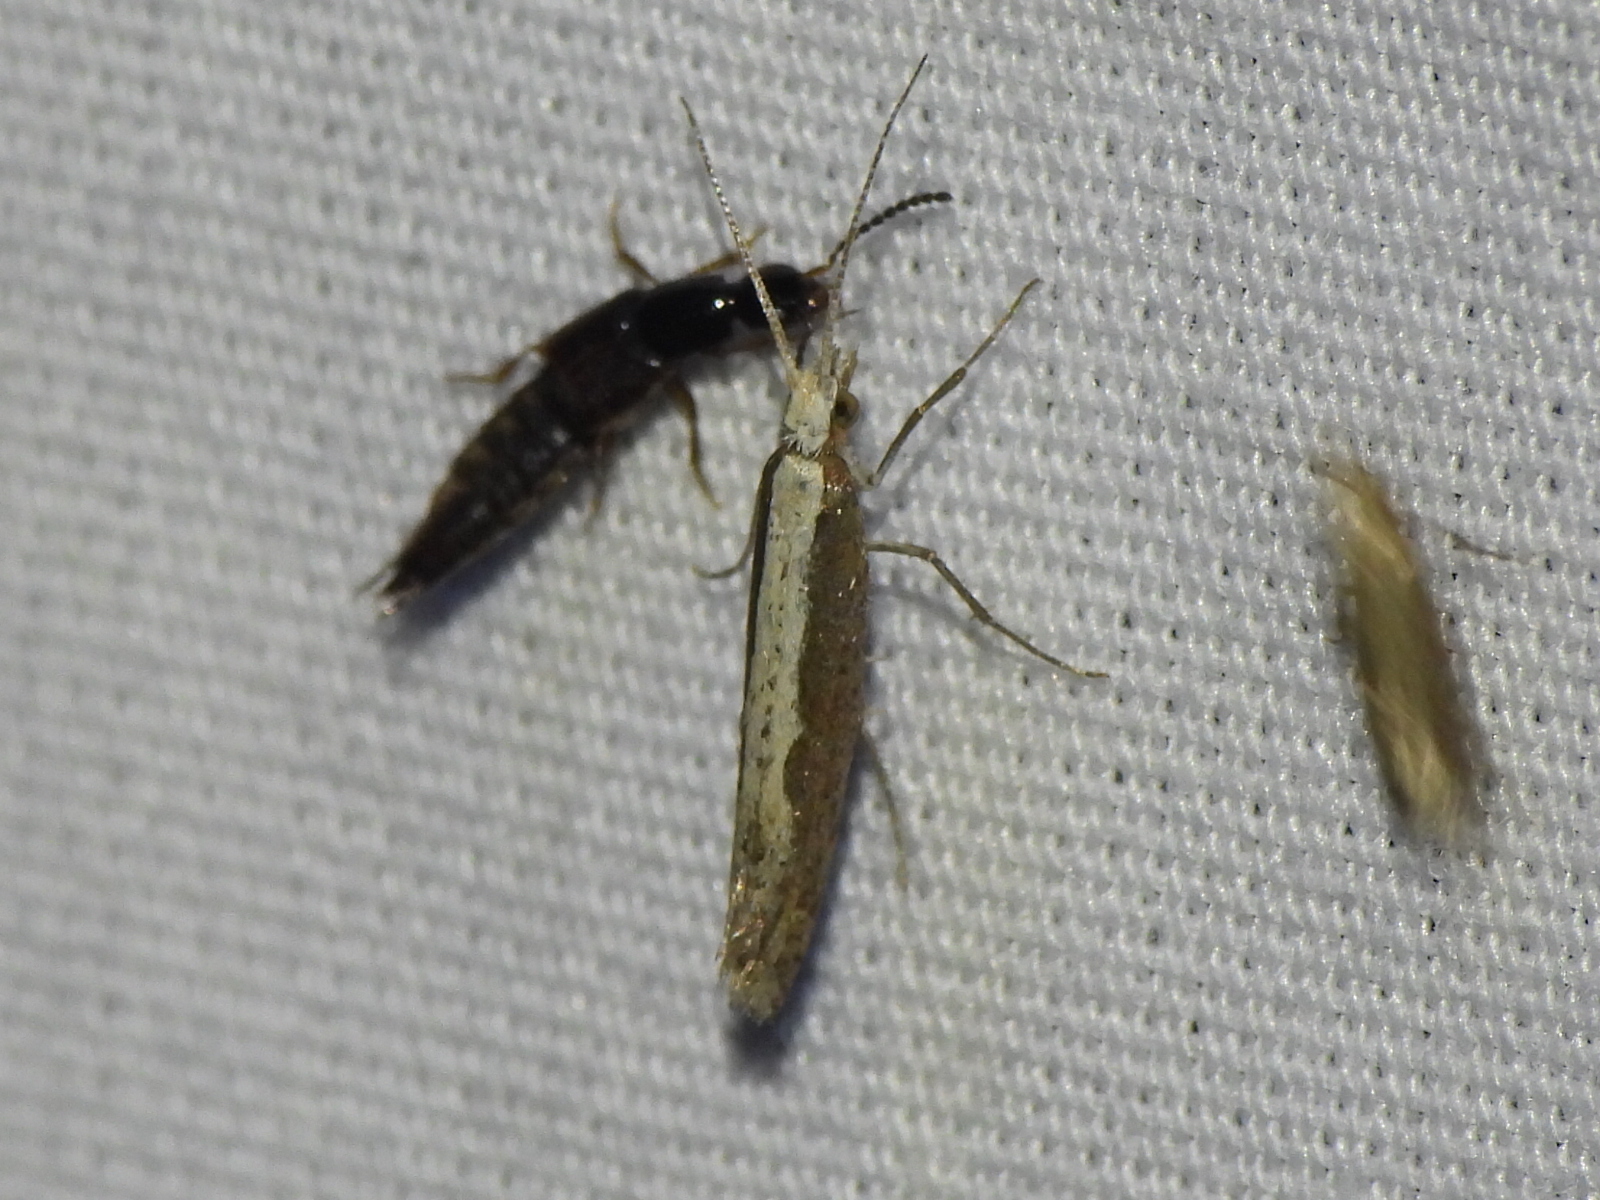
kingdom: Animalia
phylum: Arthropoda
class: Insecta
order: Lepidoptera
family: Plutellidae
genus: Plutella
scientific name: Plutella xylostella
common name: Diamond-back moth
